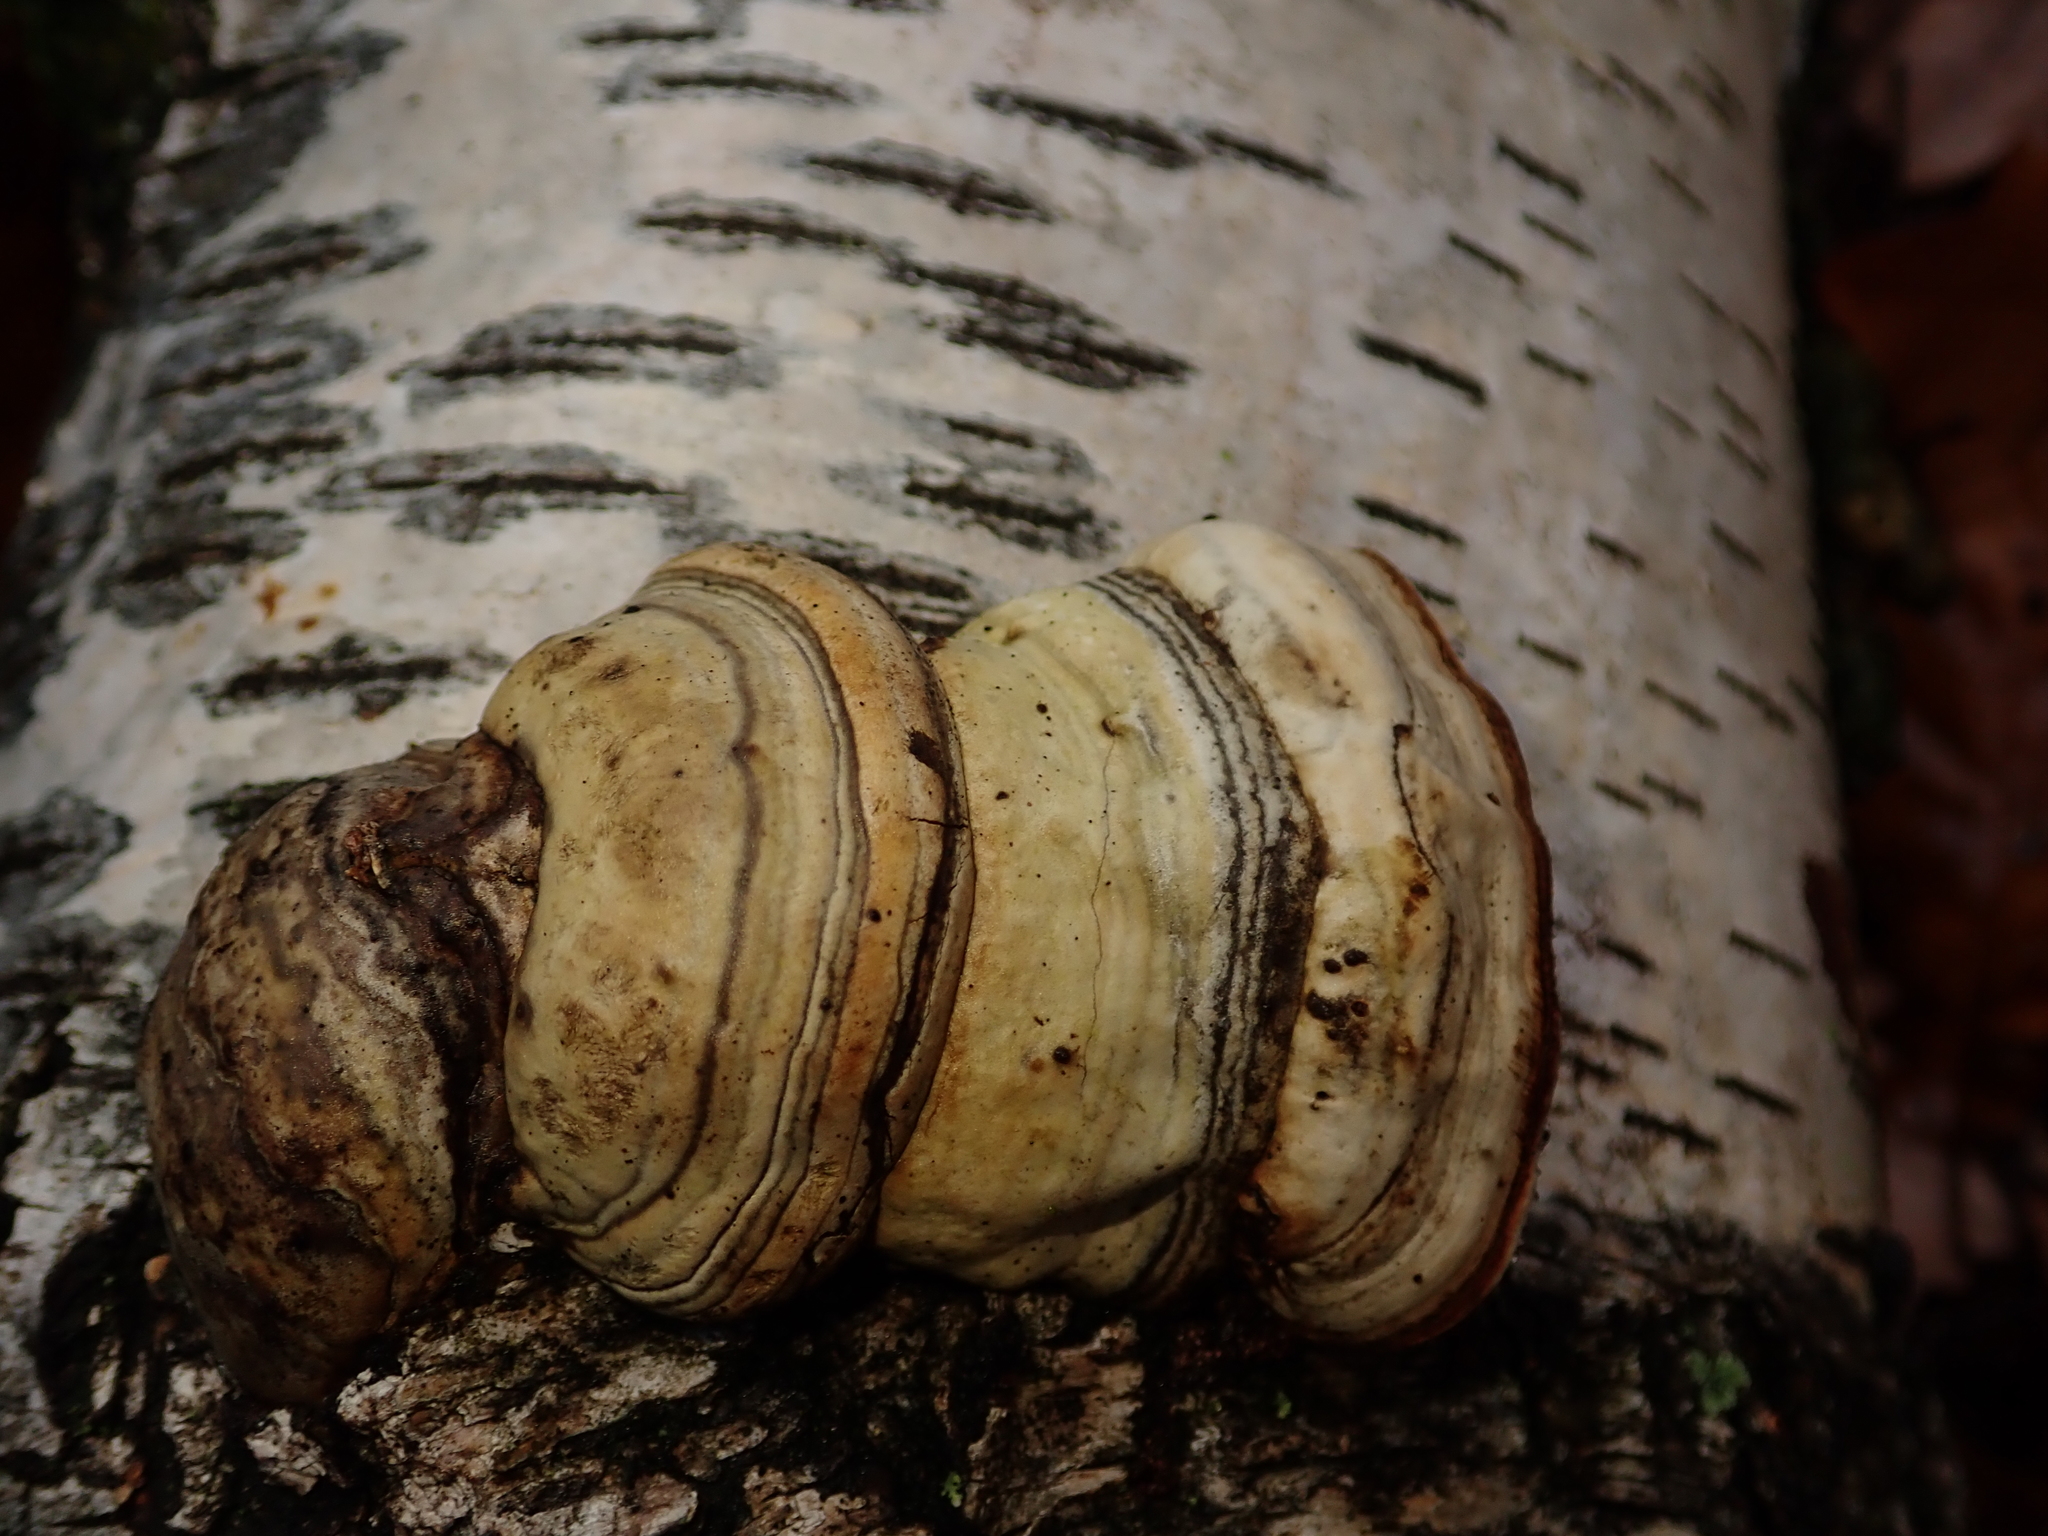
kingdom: Fungi
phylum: Basidiomycota
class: Agaricomycetes
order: Polyporales
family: Polyporaceae
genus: Fomes
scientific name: Fomes fomentarius
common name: Hoof fungus
